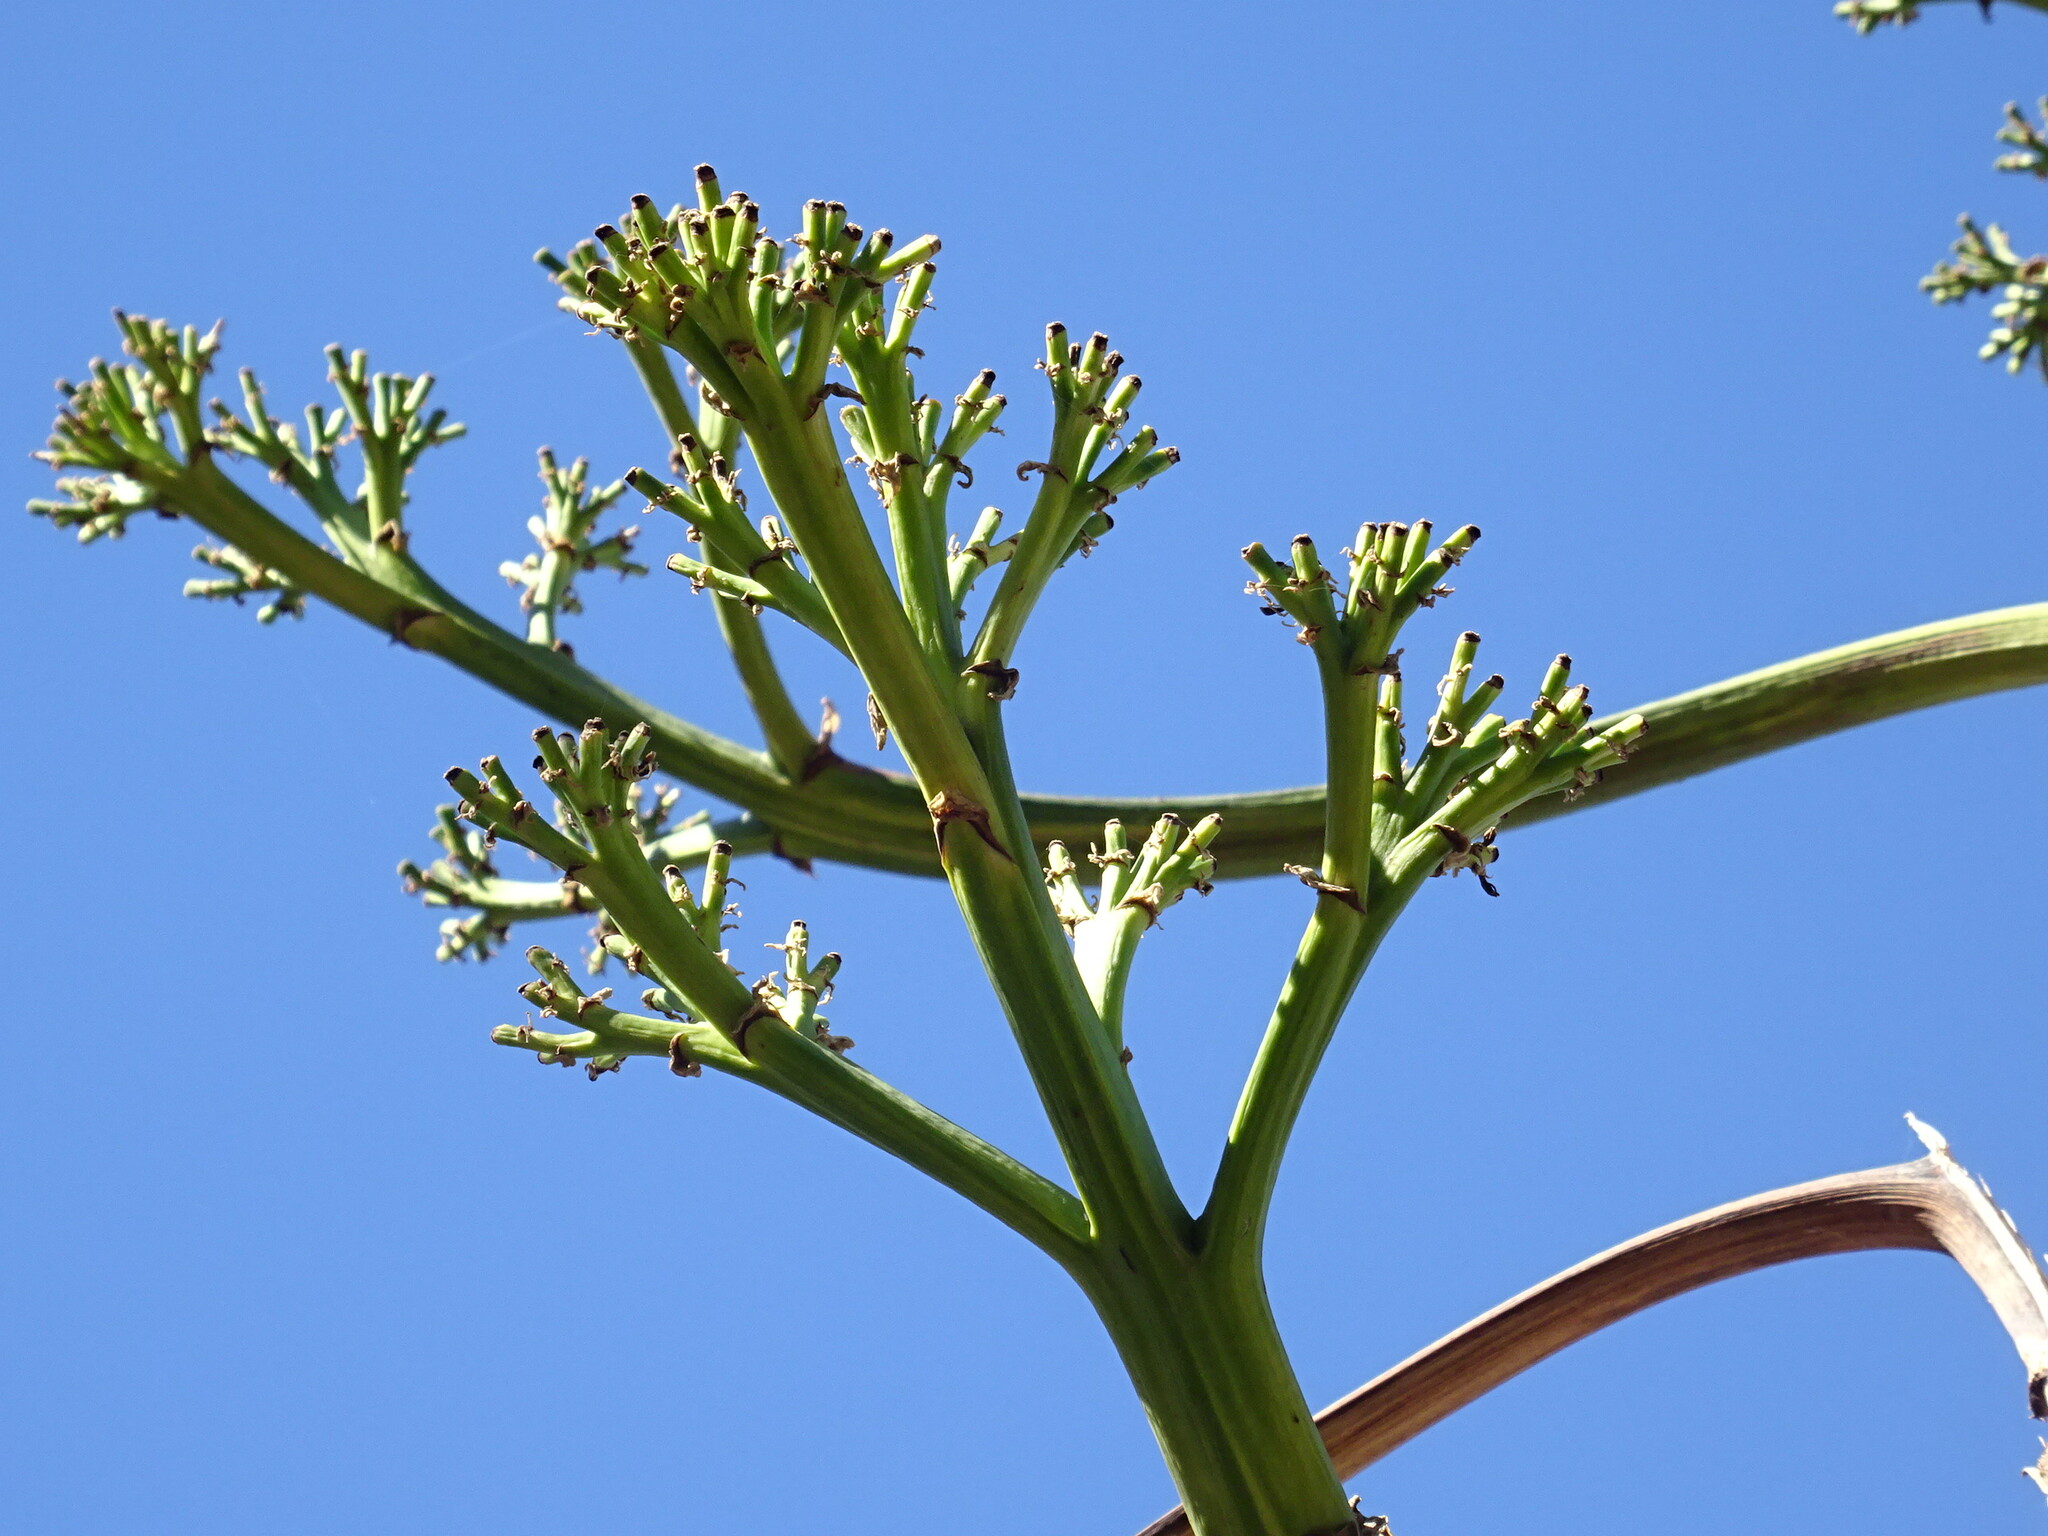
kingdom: Plantae
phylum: Tracheophyta
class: Liliopsida
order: Asparagales
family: Asparagaceae
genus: Agave
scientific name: Agave americana
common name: Centuryplant
